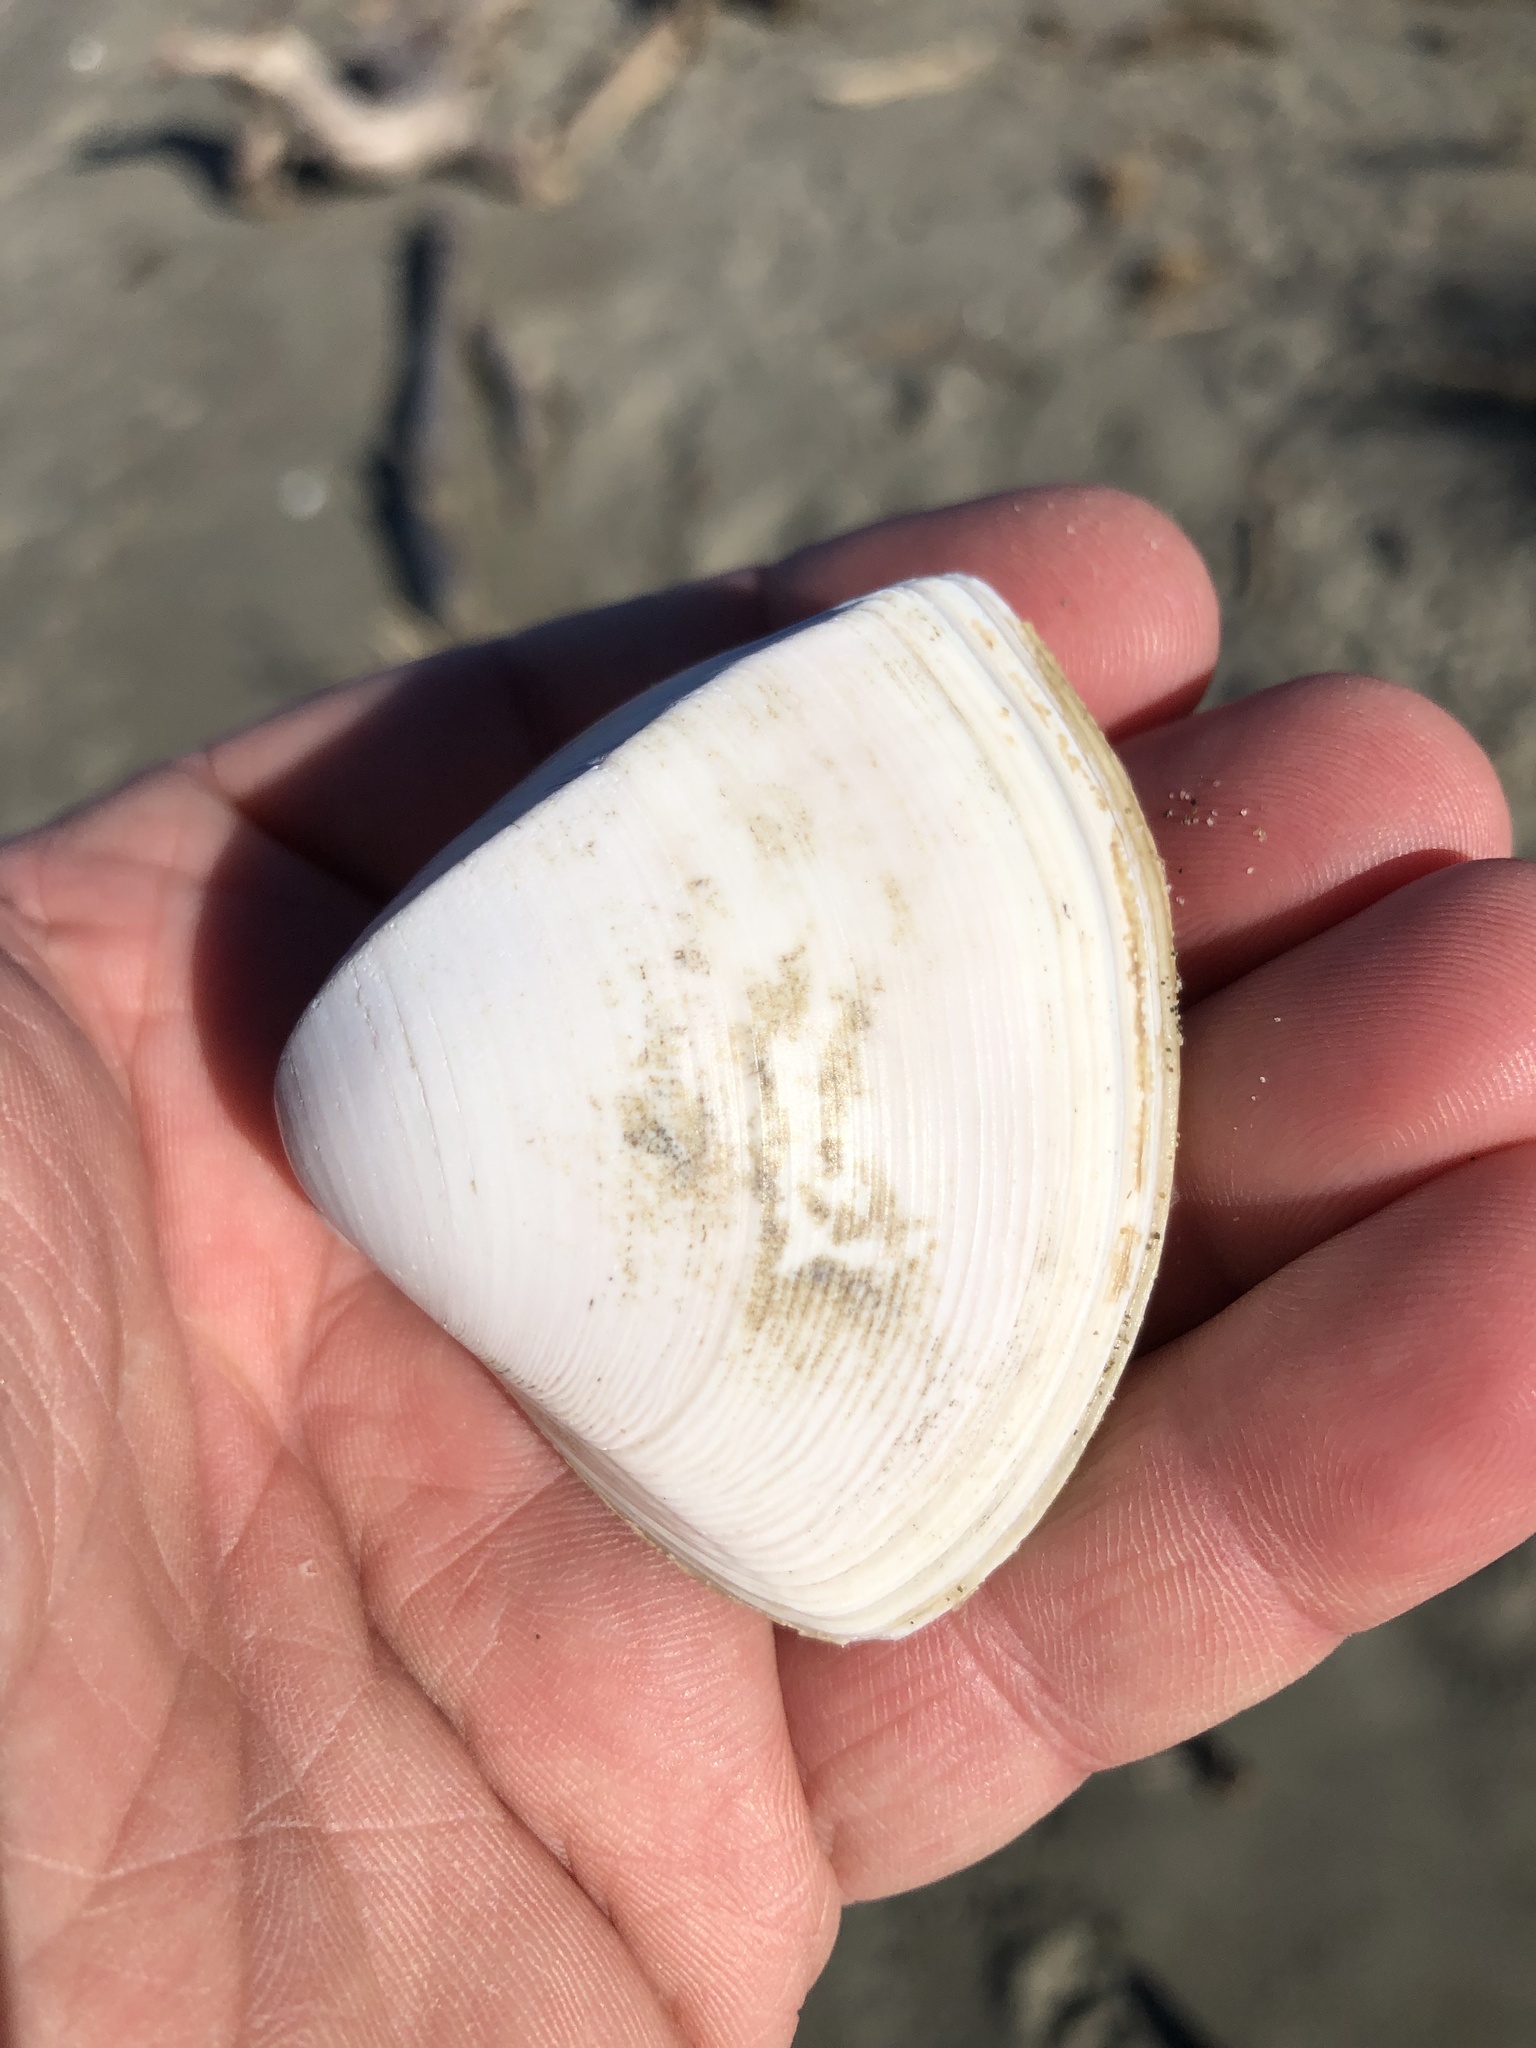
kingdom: Animalia
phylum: Mollusca
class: Bivalvia
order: Venerida
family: Mactridae
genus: Crassula
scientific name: Crassula aequilatera
